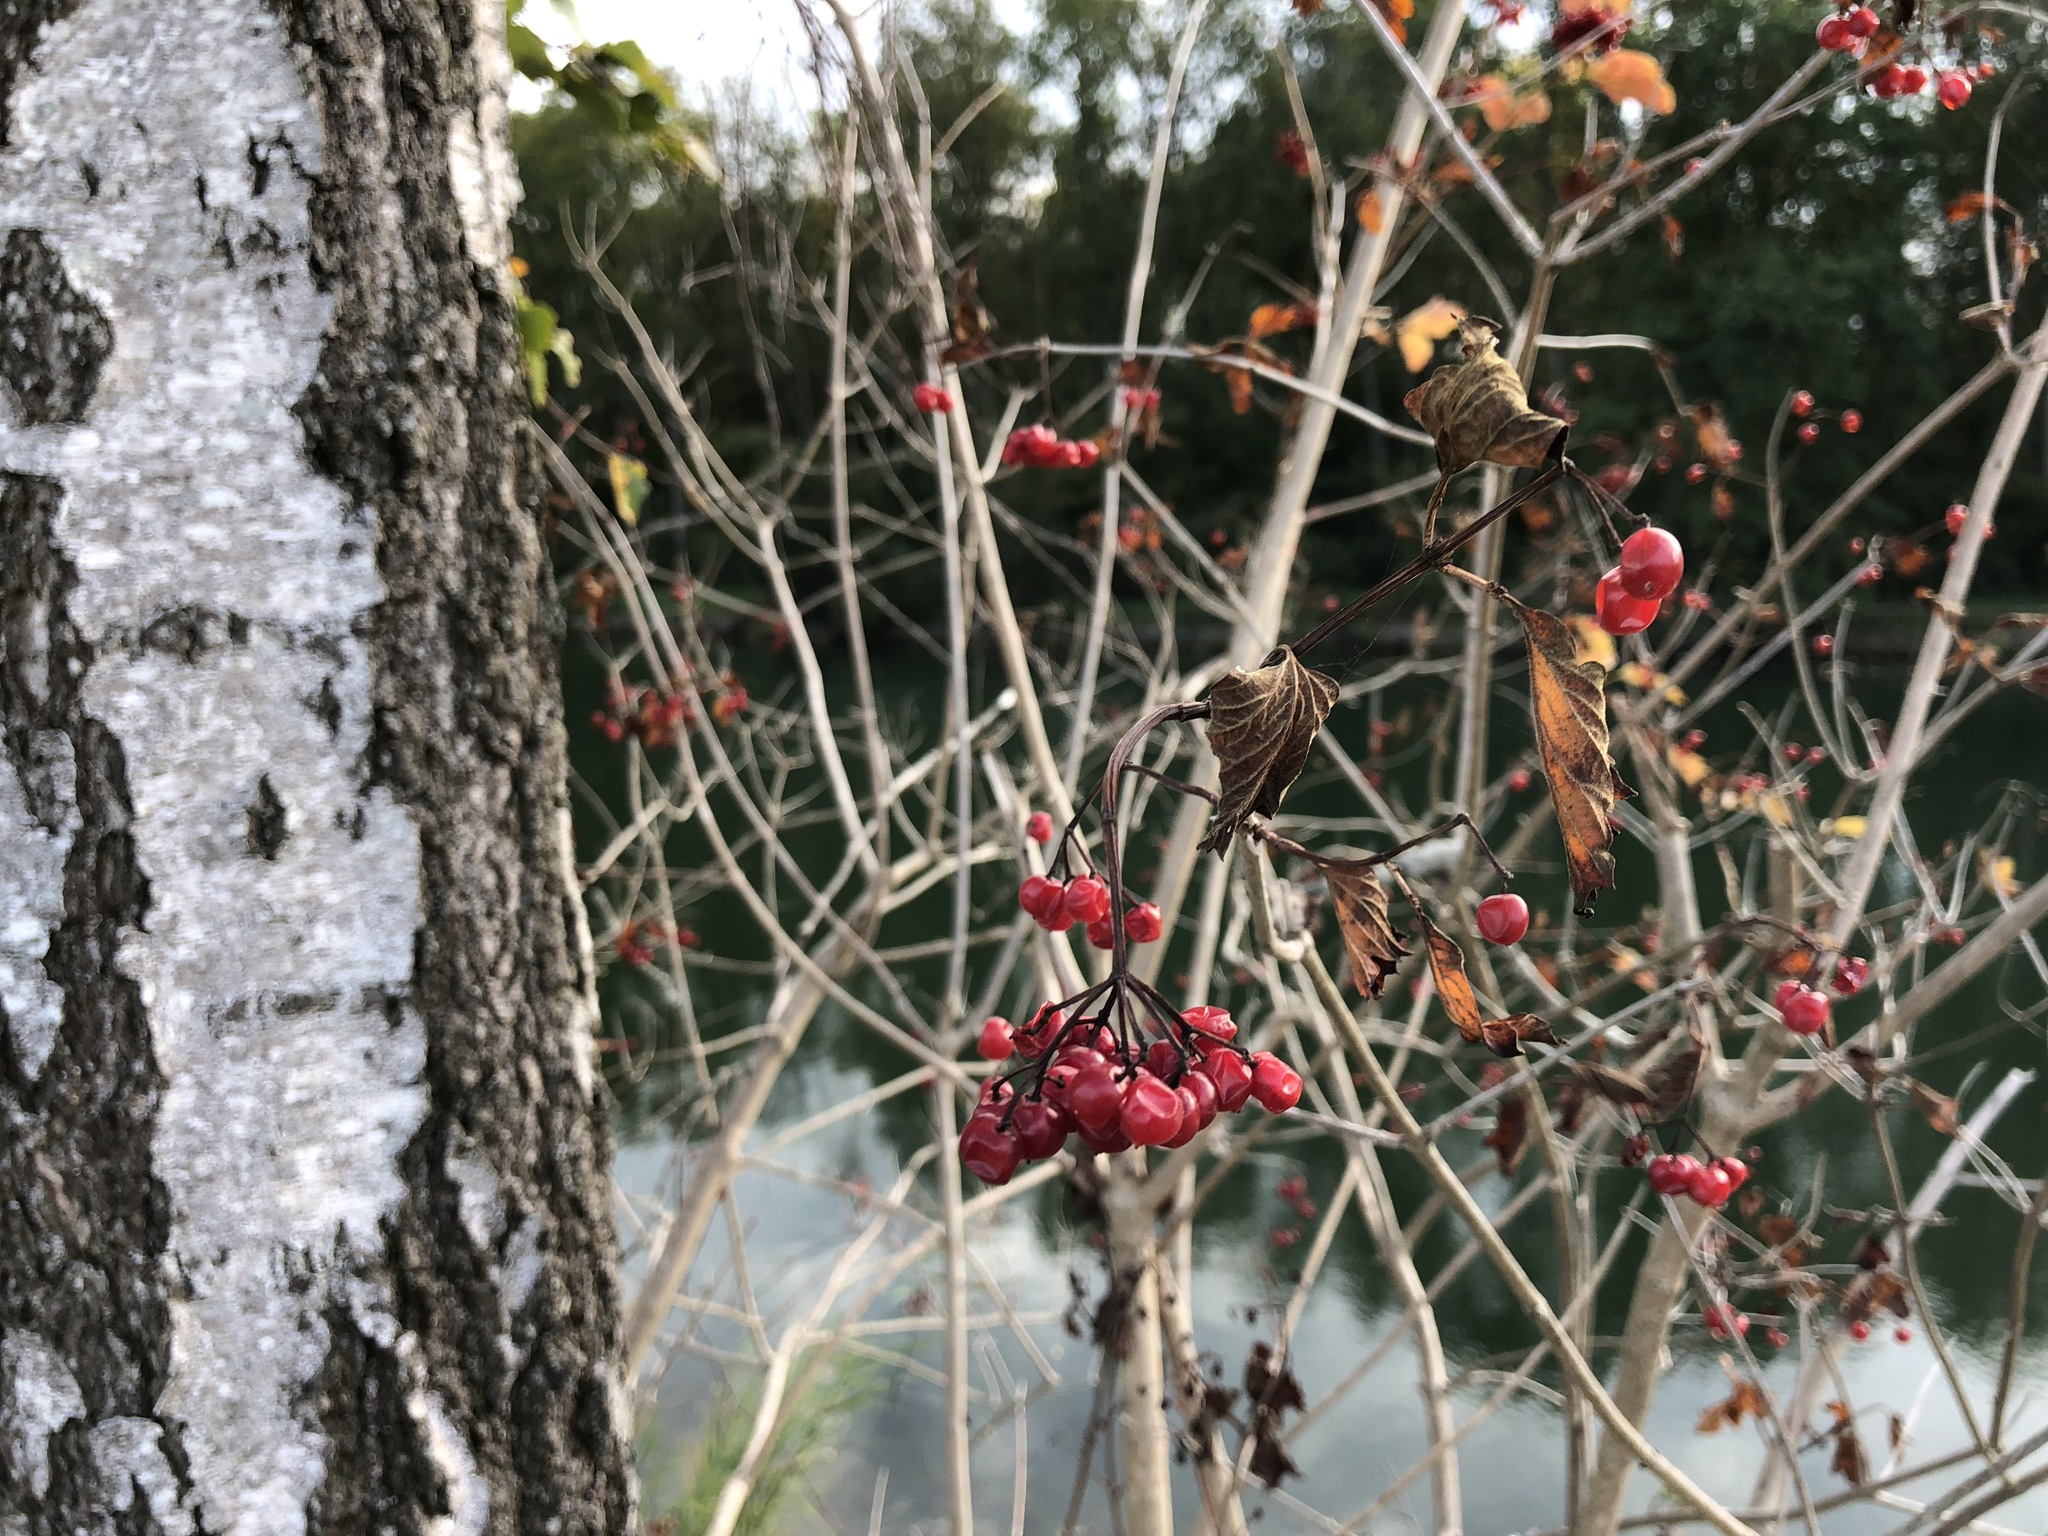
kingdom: Plantae
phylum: Tracheophyta
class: Magnoliopsida
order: Dipsacales
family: Viburnaceae
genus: Viburnum
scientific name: Viburnum opulus
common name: Guelder-rose
